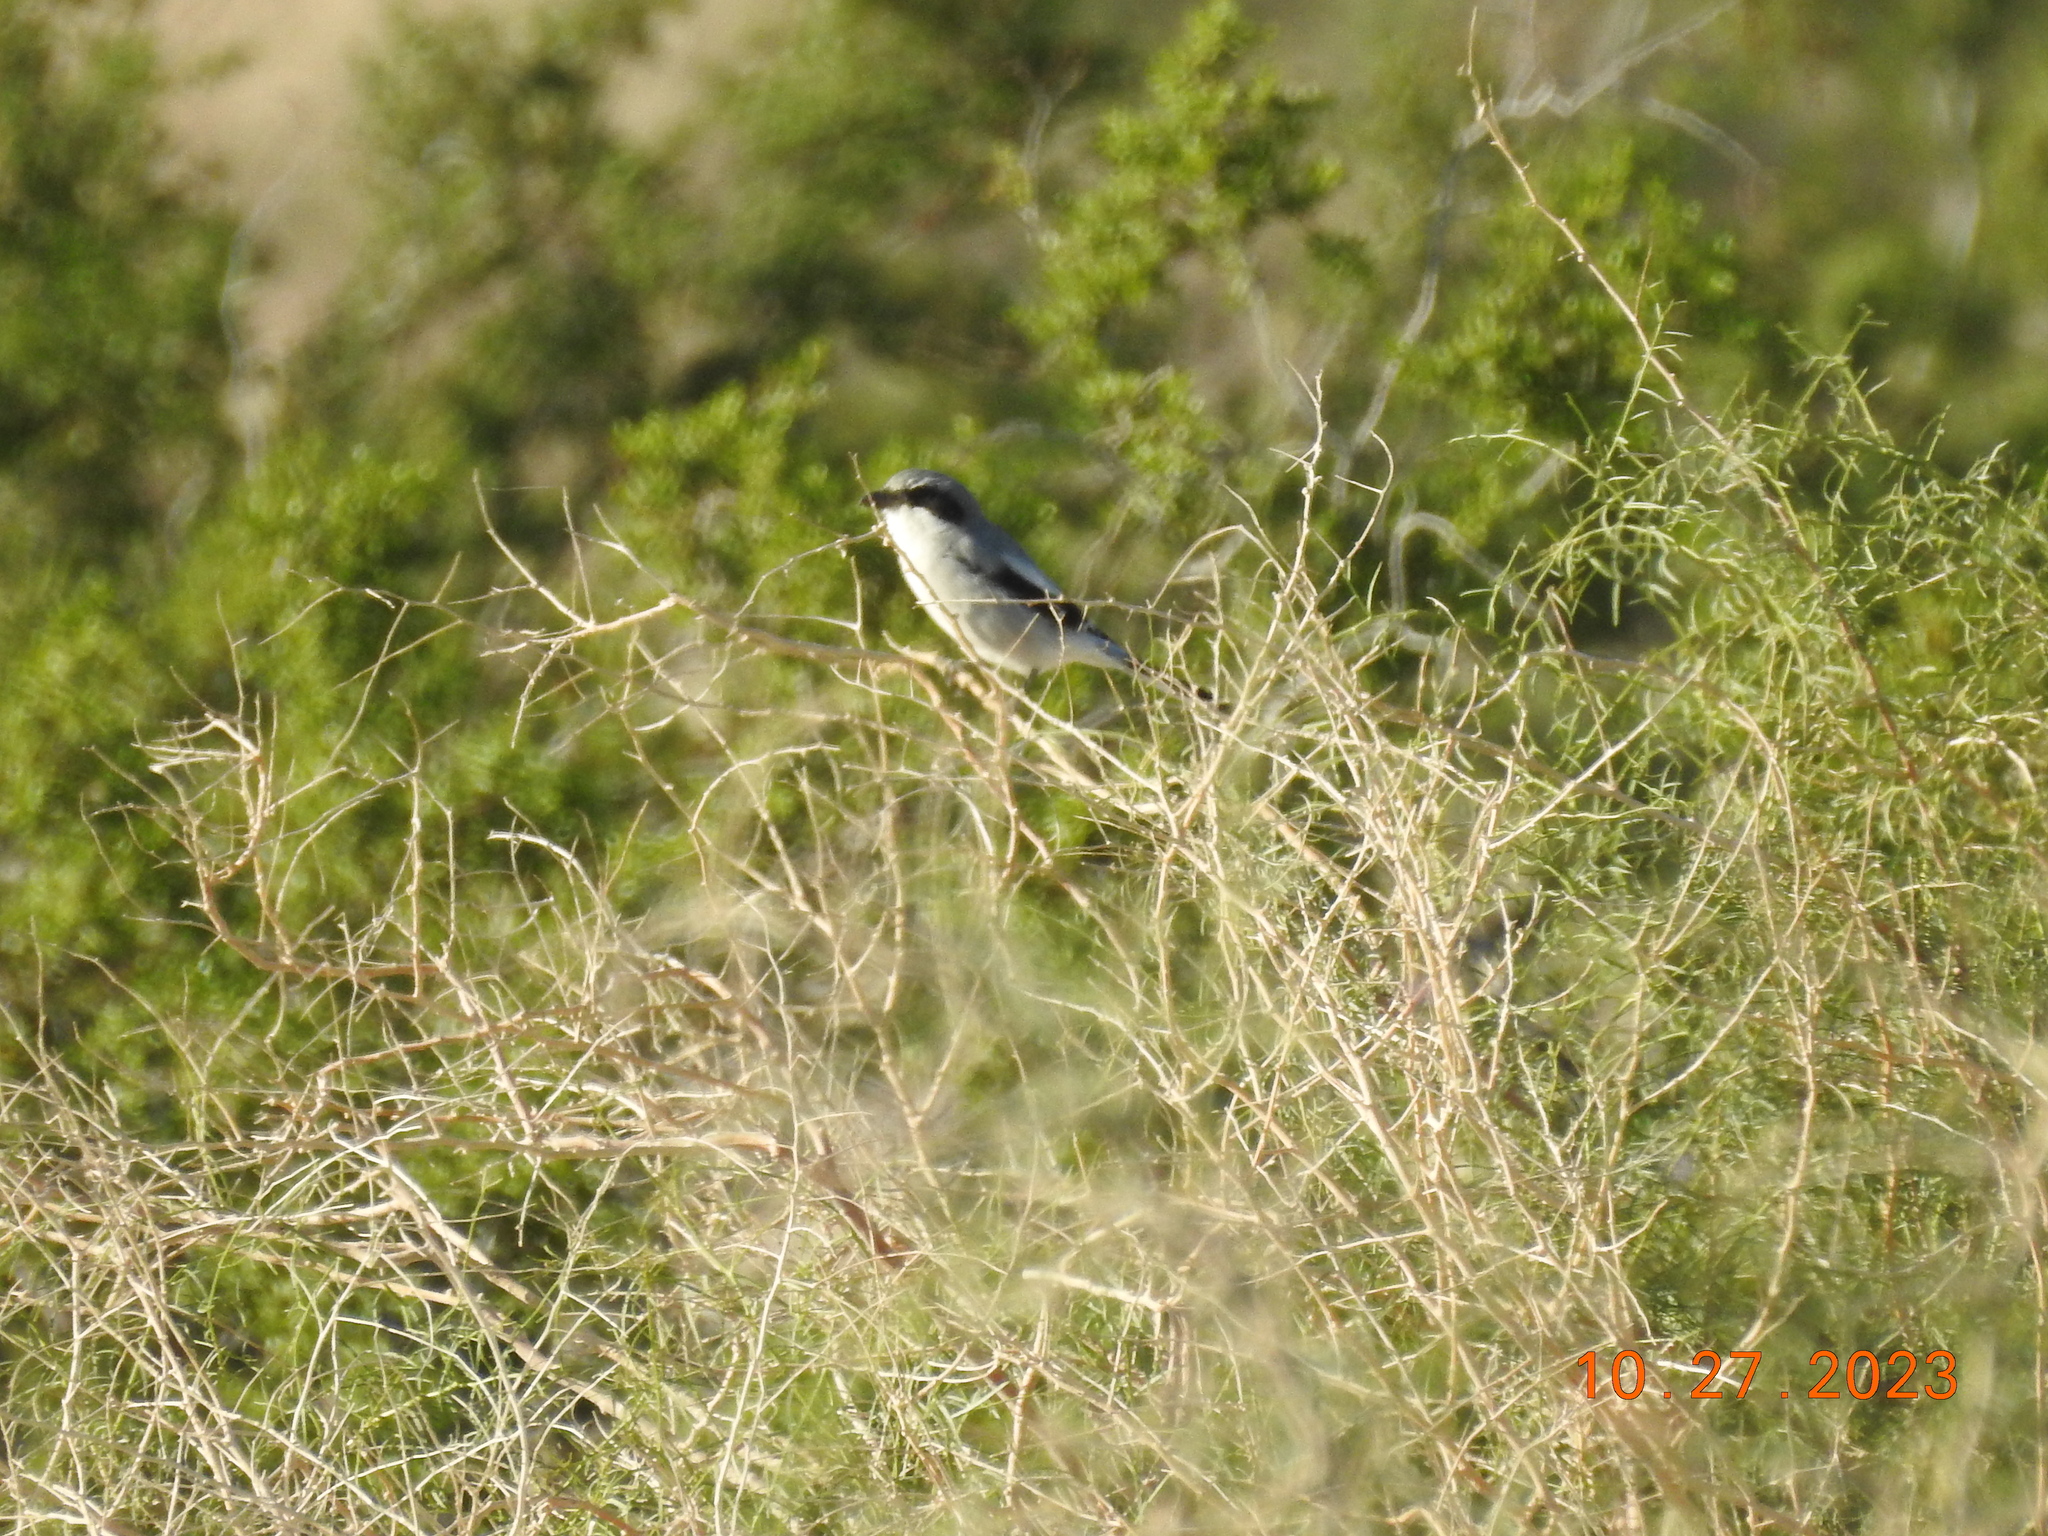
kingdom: Animalia
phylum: Chordata
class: Aves
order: Passeriformes
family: Laniidae
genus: Lanius
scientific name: Lanius ludovicianus
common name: Loggerhead shrike
